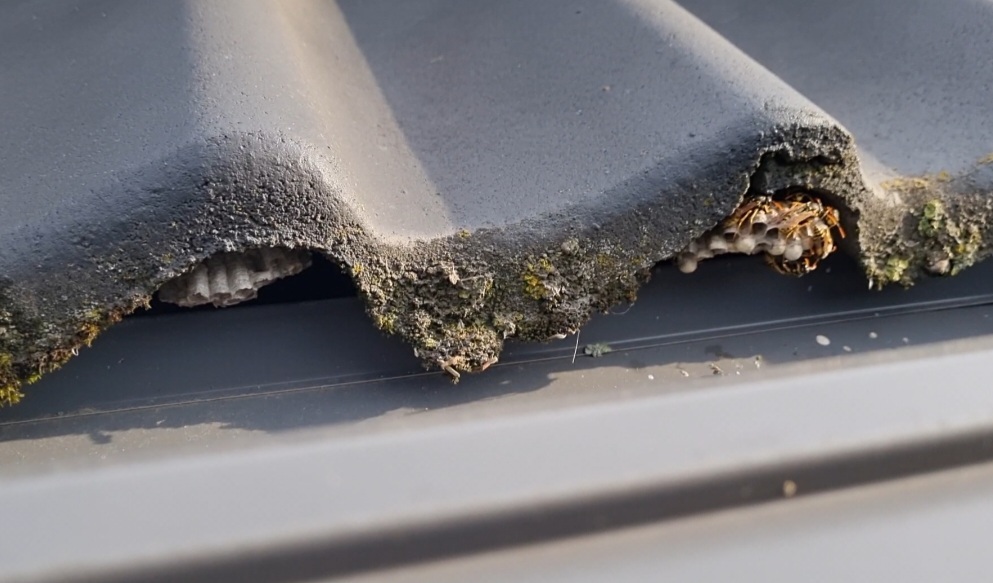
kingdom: Animalia
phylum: Arthropoda
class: Insecta
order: Hymenoptera
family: Eumenidae
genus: Polistes
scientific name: Polistes dominula
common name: Paper wasp
